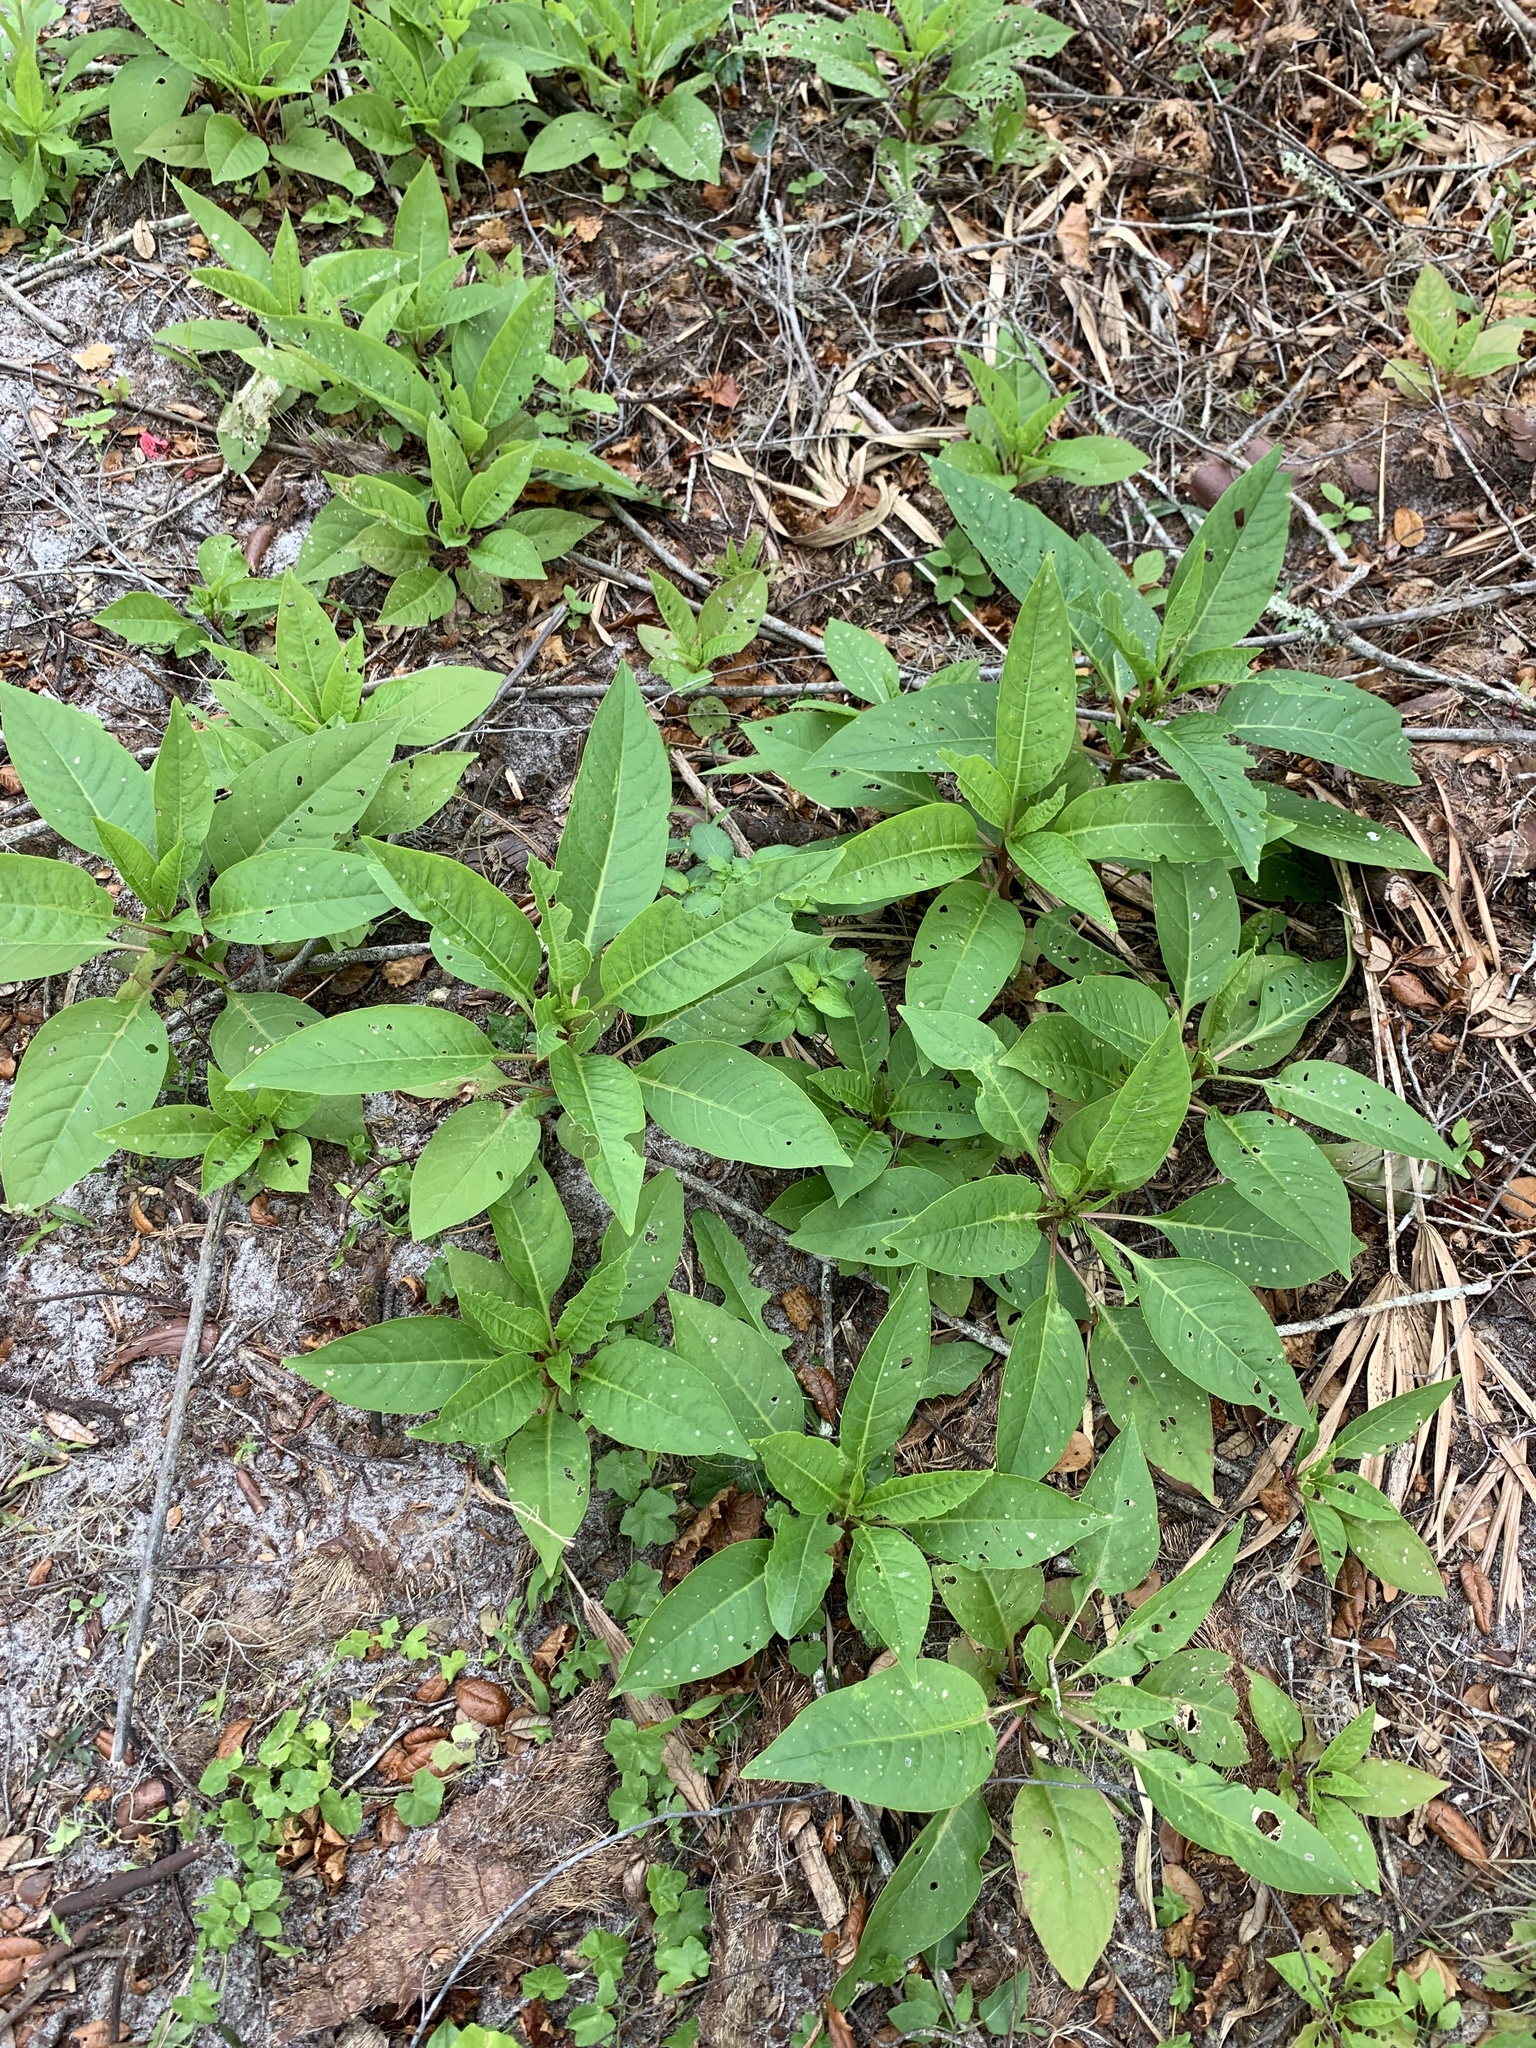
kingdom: Plantae
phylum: Tracheophyta
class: Magnoliopsida
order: Caryophyllales
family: Phytolaccaceae
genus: Phytolacca
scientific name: Phytolacca americana
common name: American pokeweed
